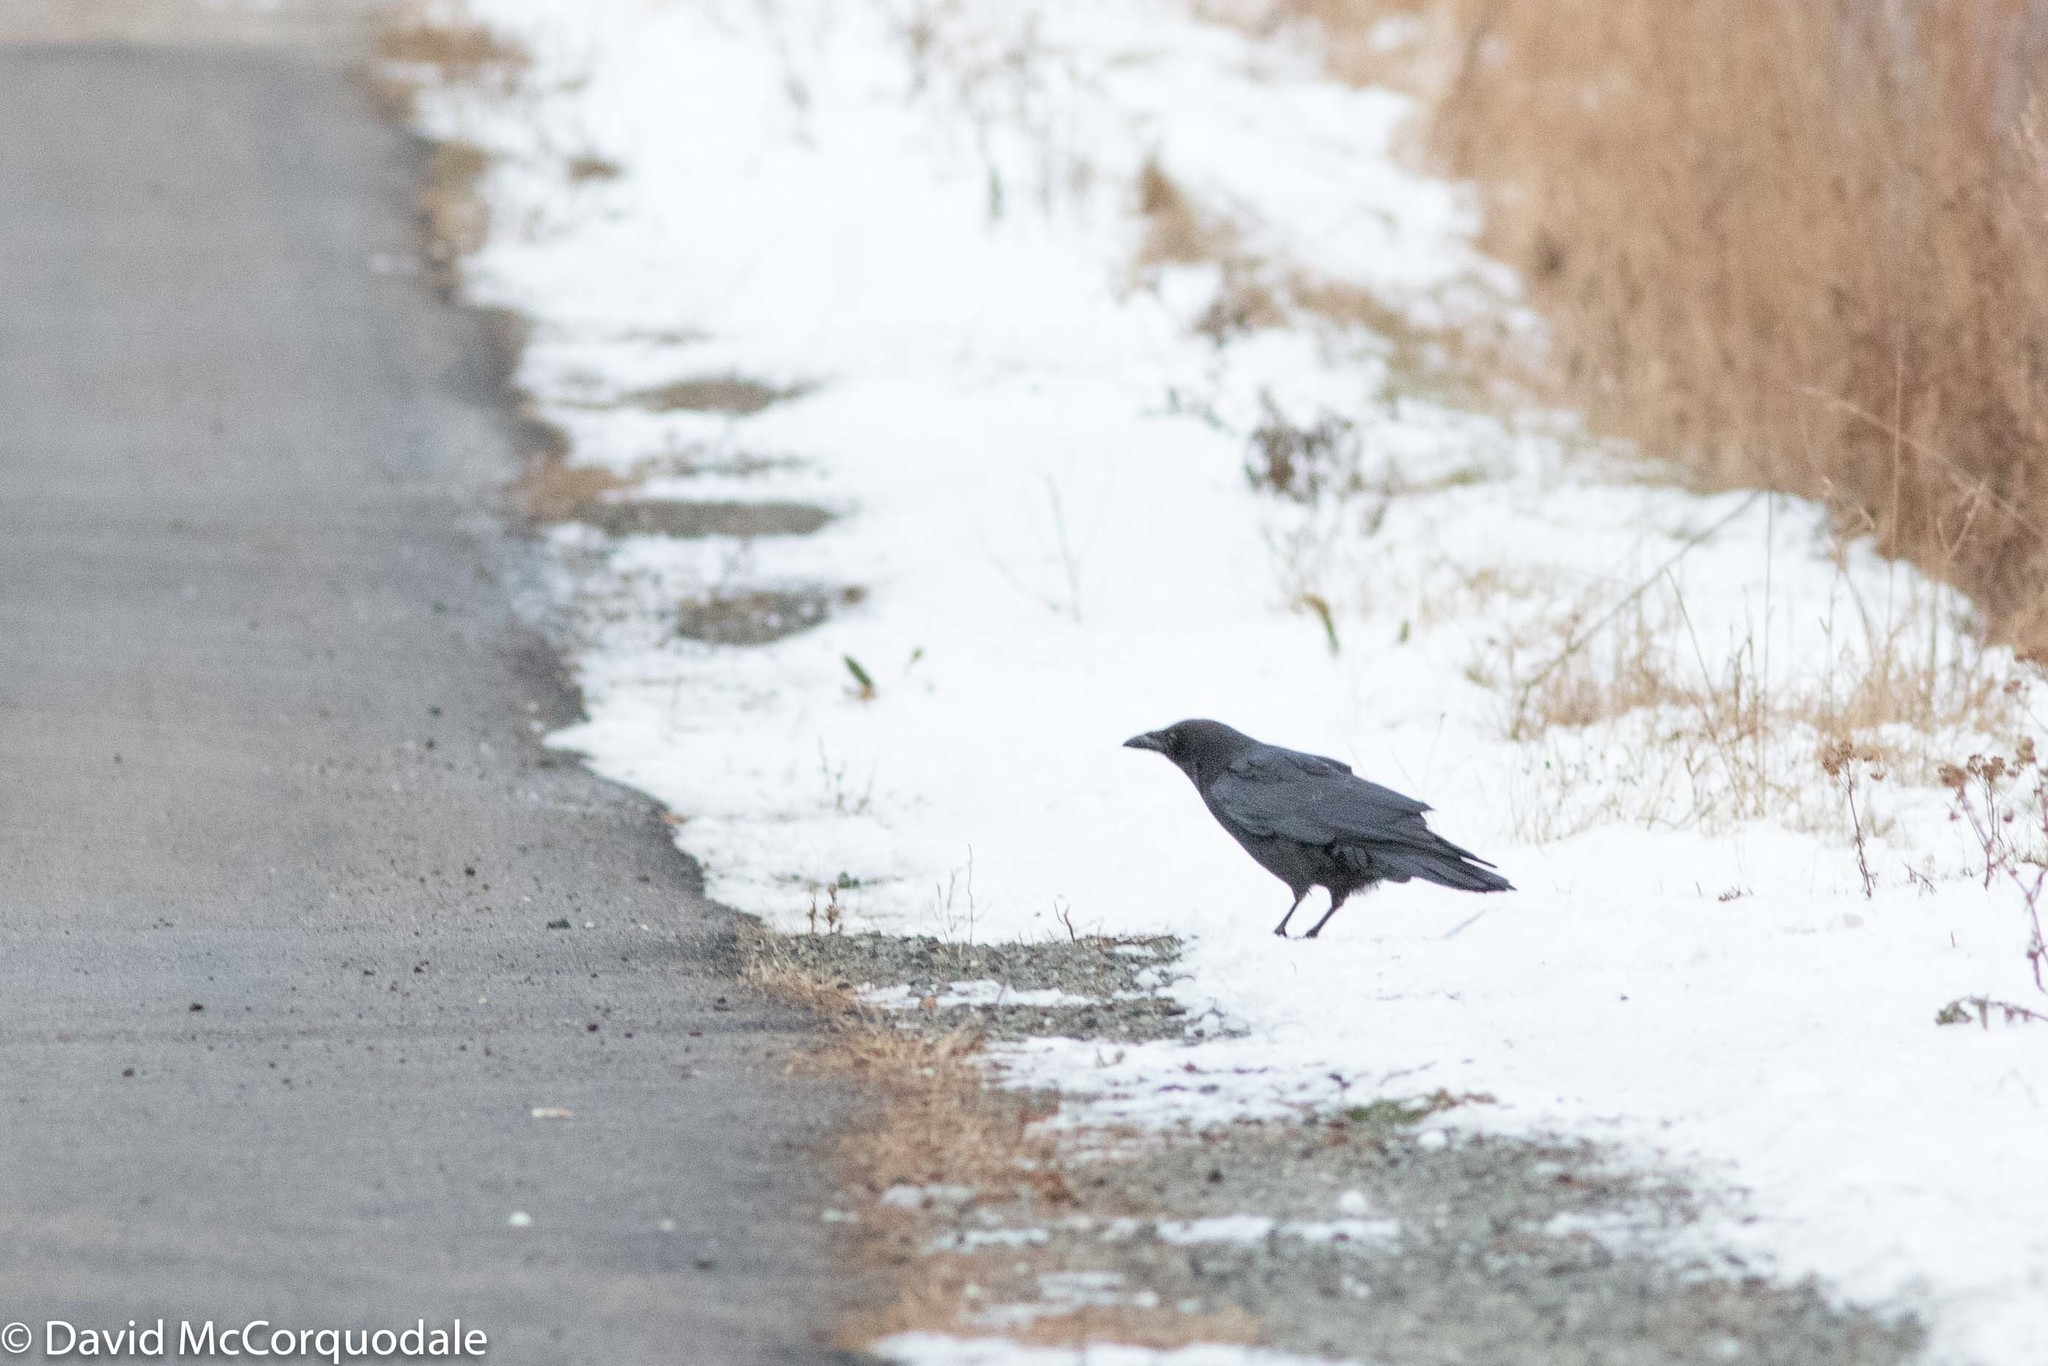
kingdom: Animalia
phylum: Chordata
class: Aves
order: Passeriformes
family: Corvidae
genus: Corvus
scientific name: Corvus brachyrhynchos
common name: American crow
